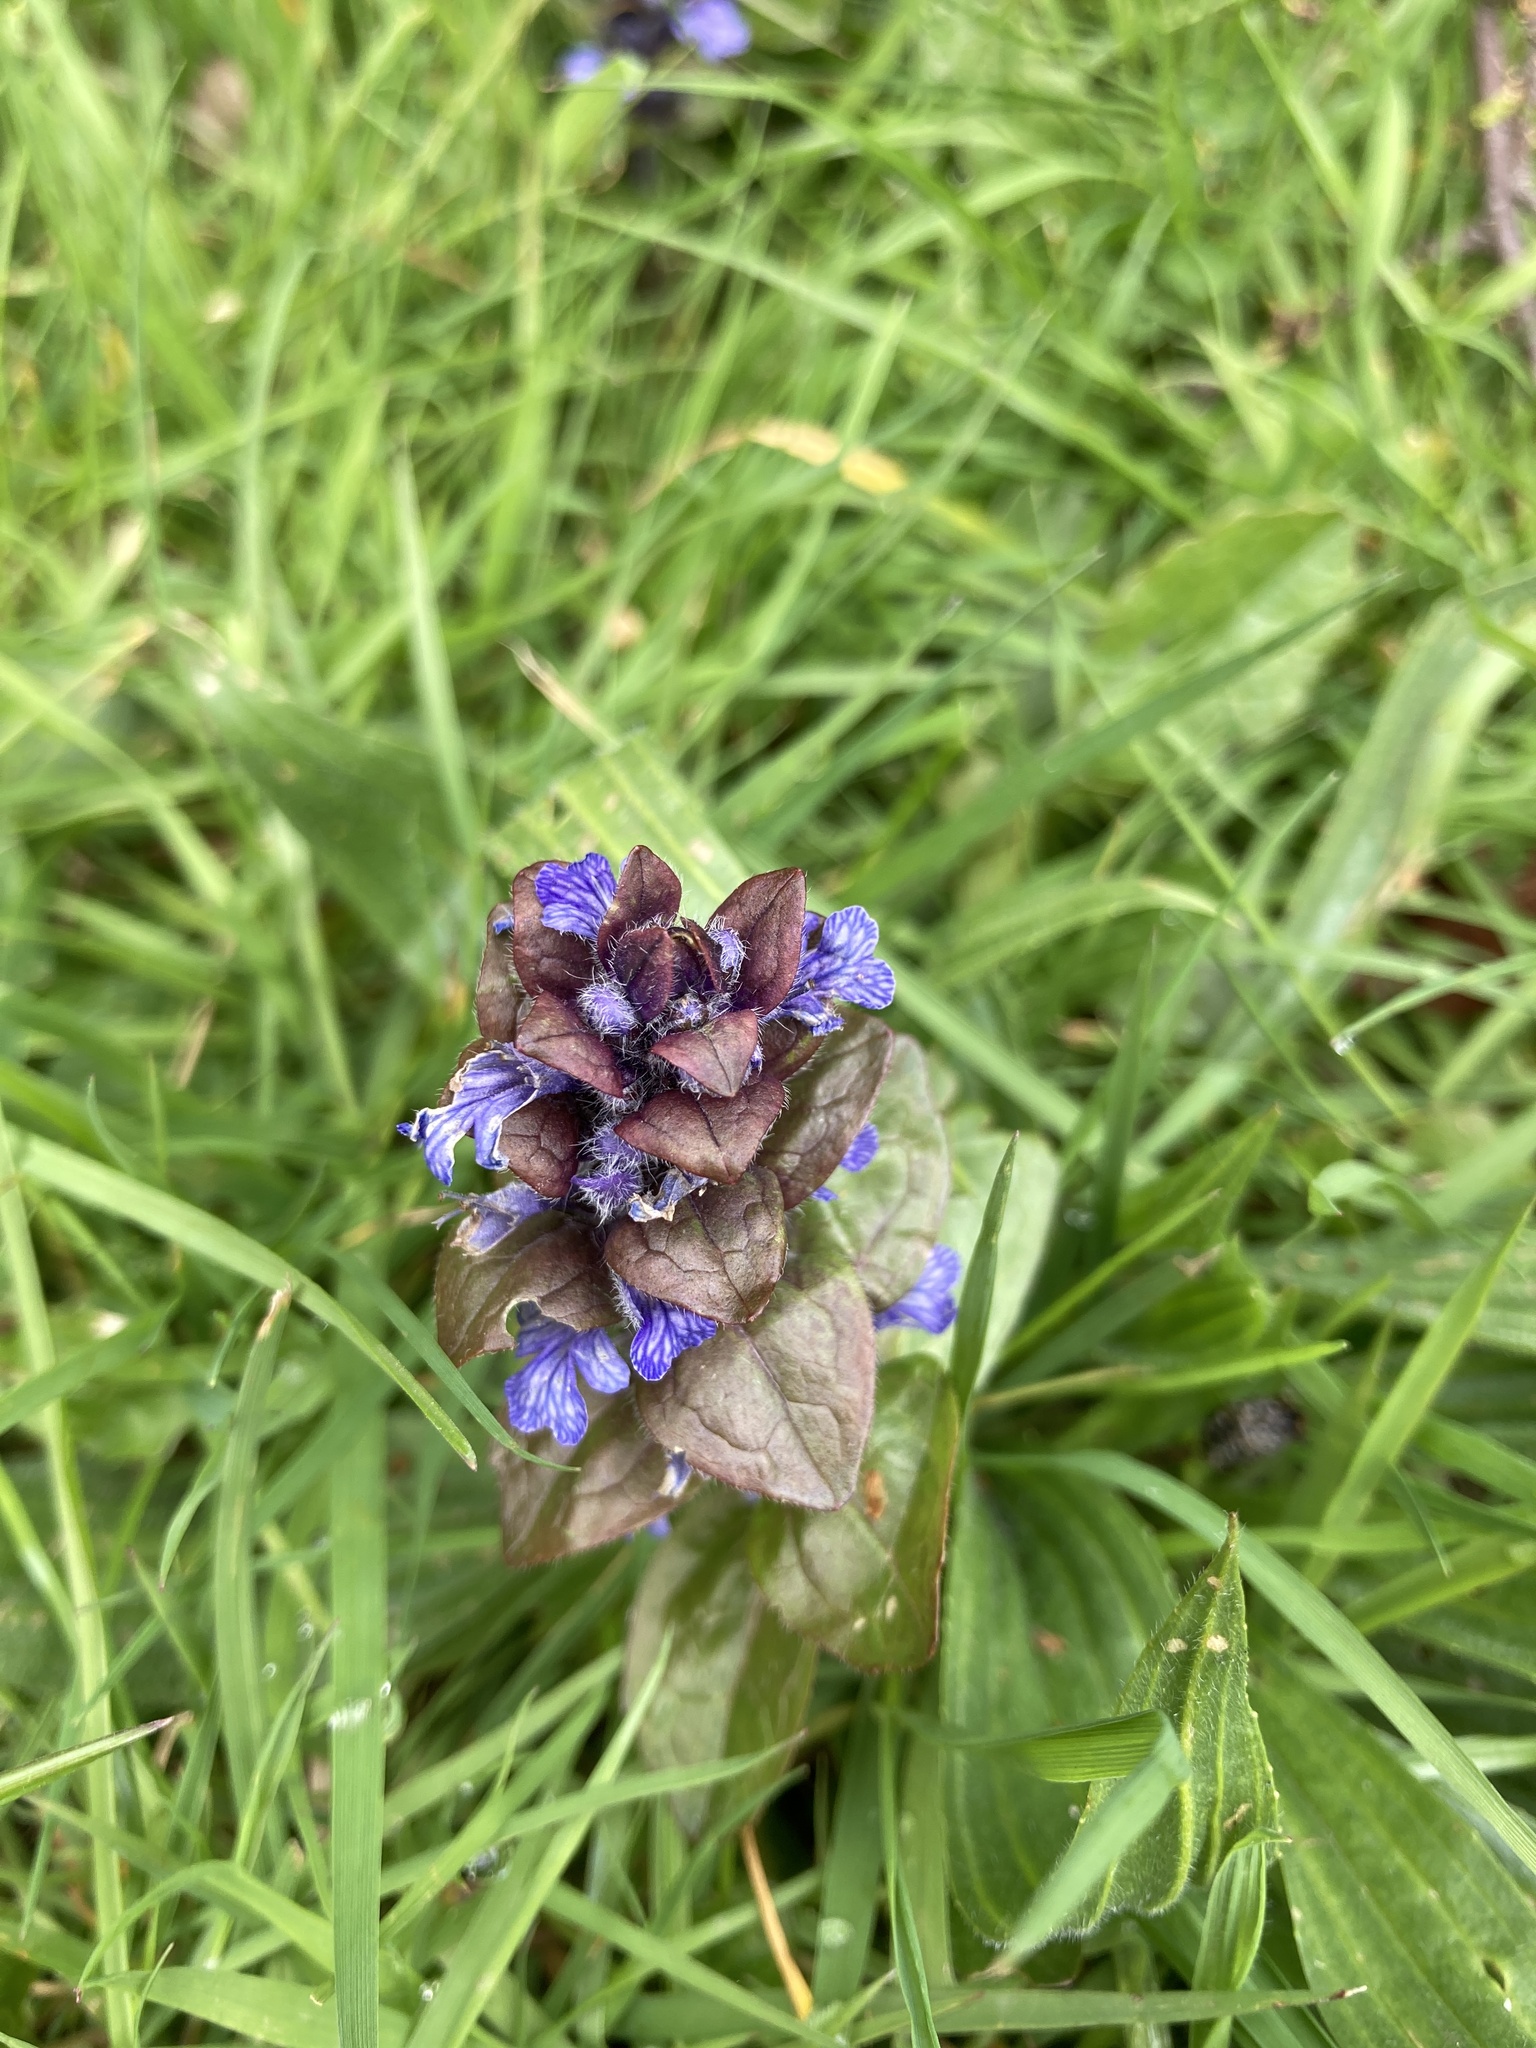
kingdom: Plantae
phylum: Tracheophyta
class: Magnoliopsida
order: Lamiales
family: Lamiaceae
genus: Ajuga
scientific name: Ajuga reptans
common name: Bugle
